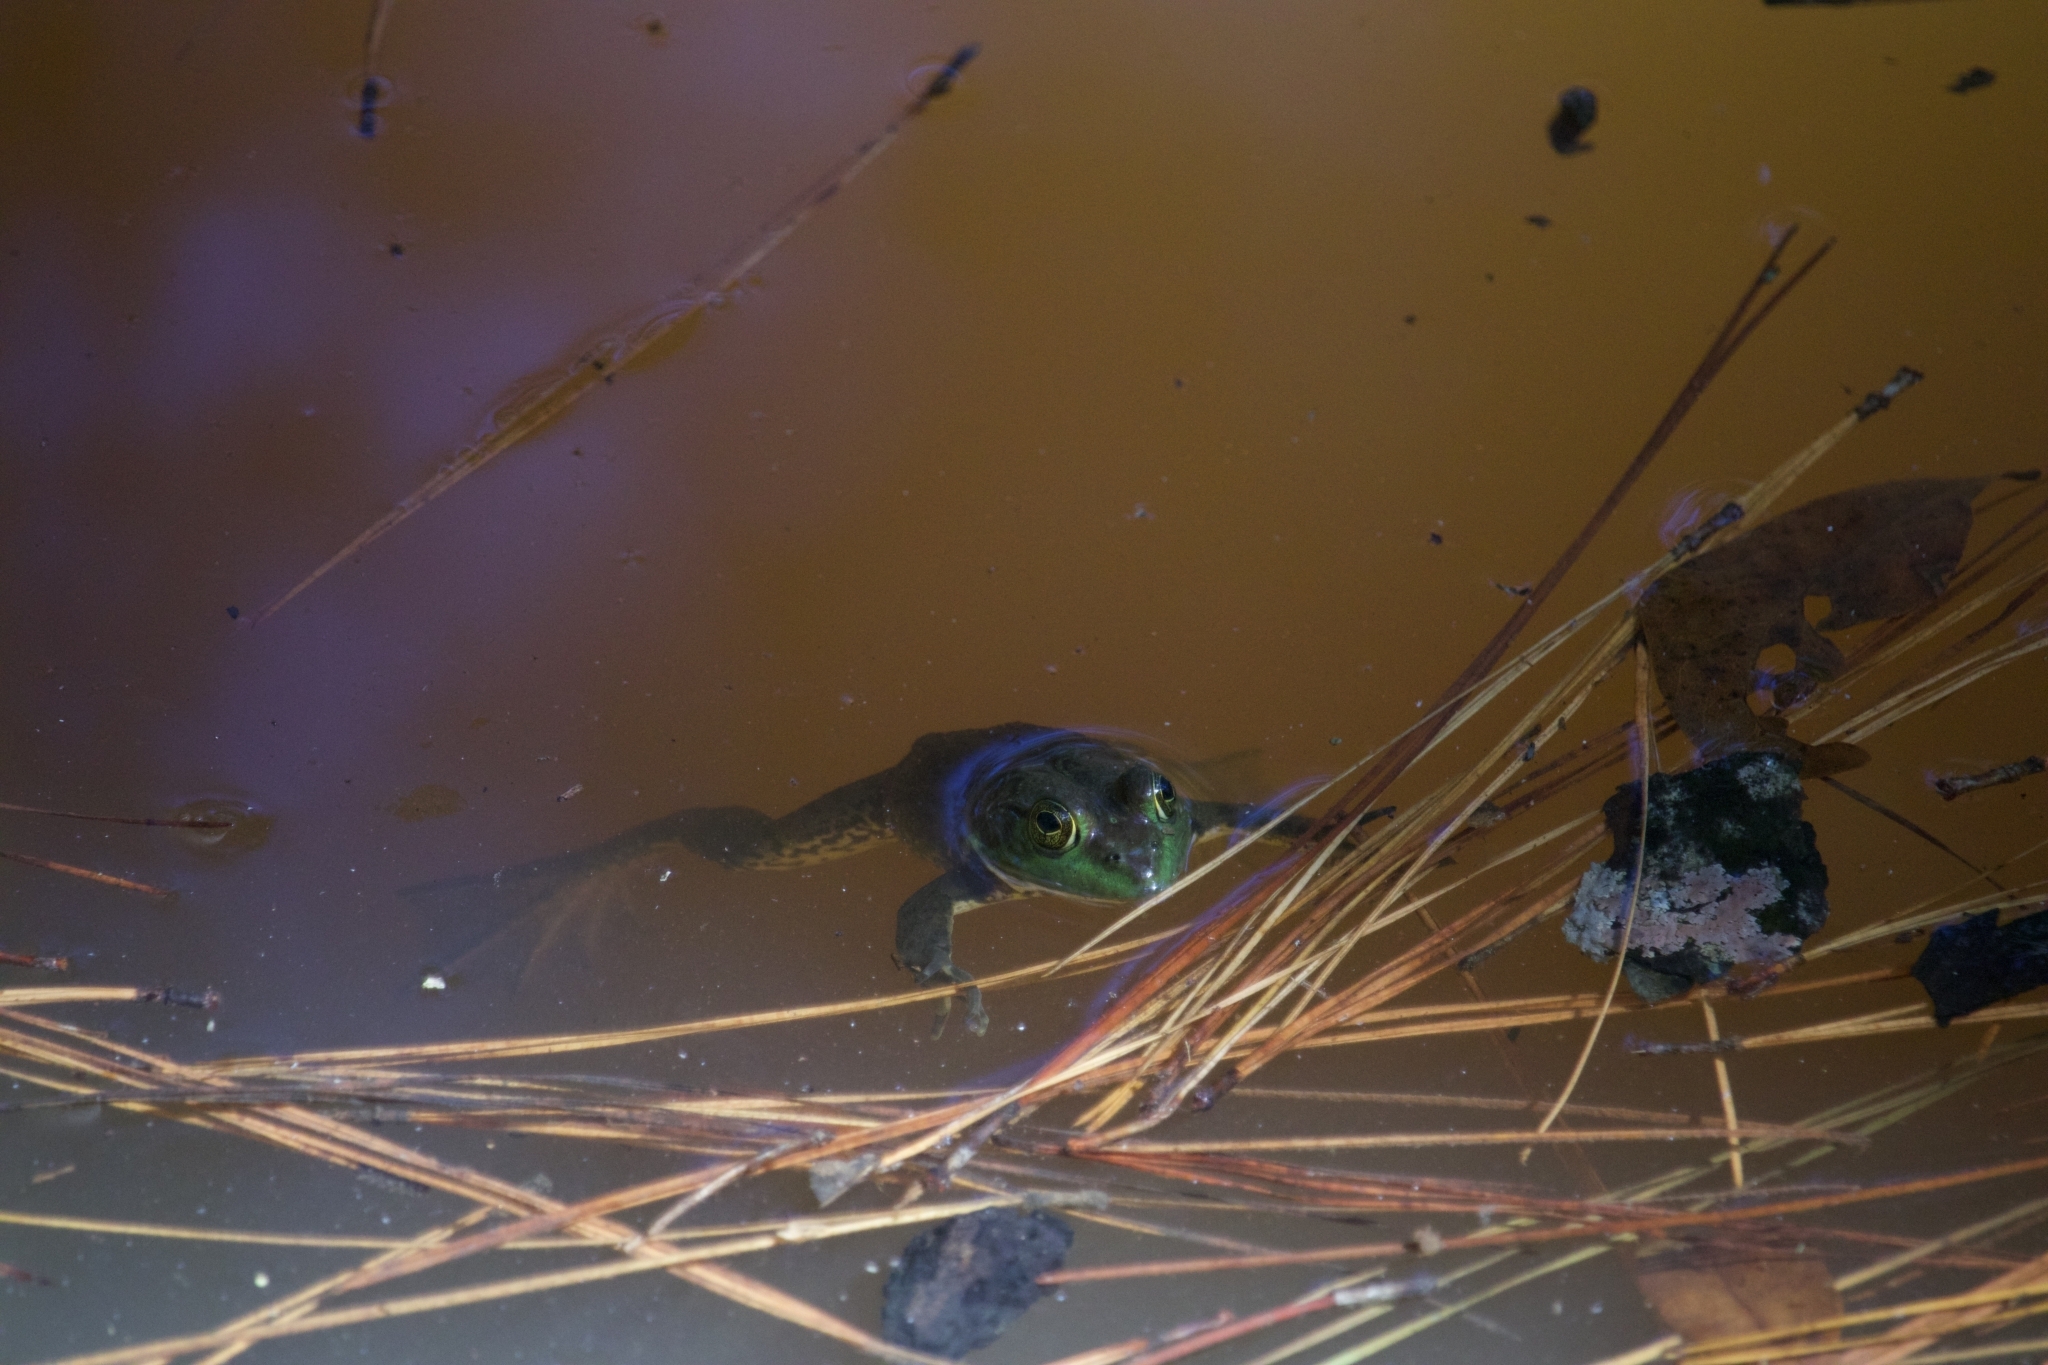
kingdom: Animalia
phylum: Chordata
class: Amphibia
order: Anura
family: Ranidae
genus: Lithobates
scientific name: Lithobates catesbeianus
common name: American bullfrog
